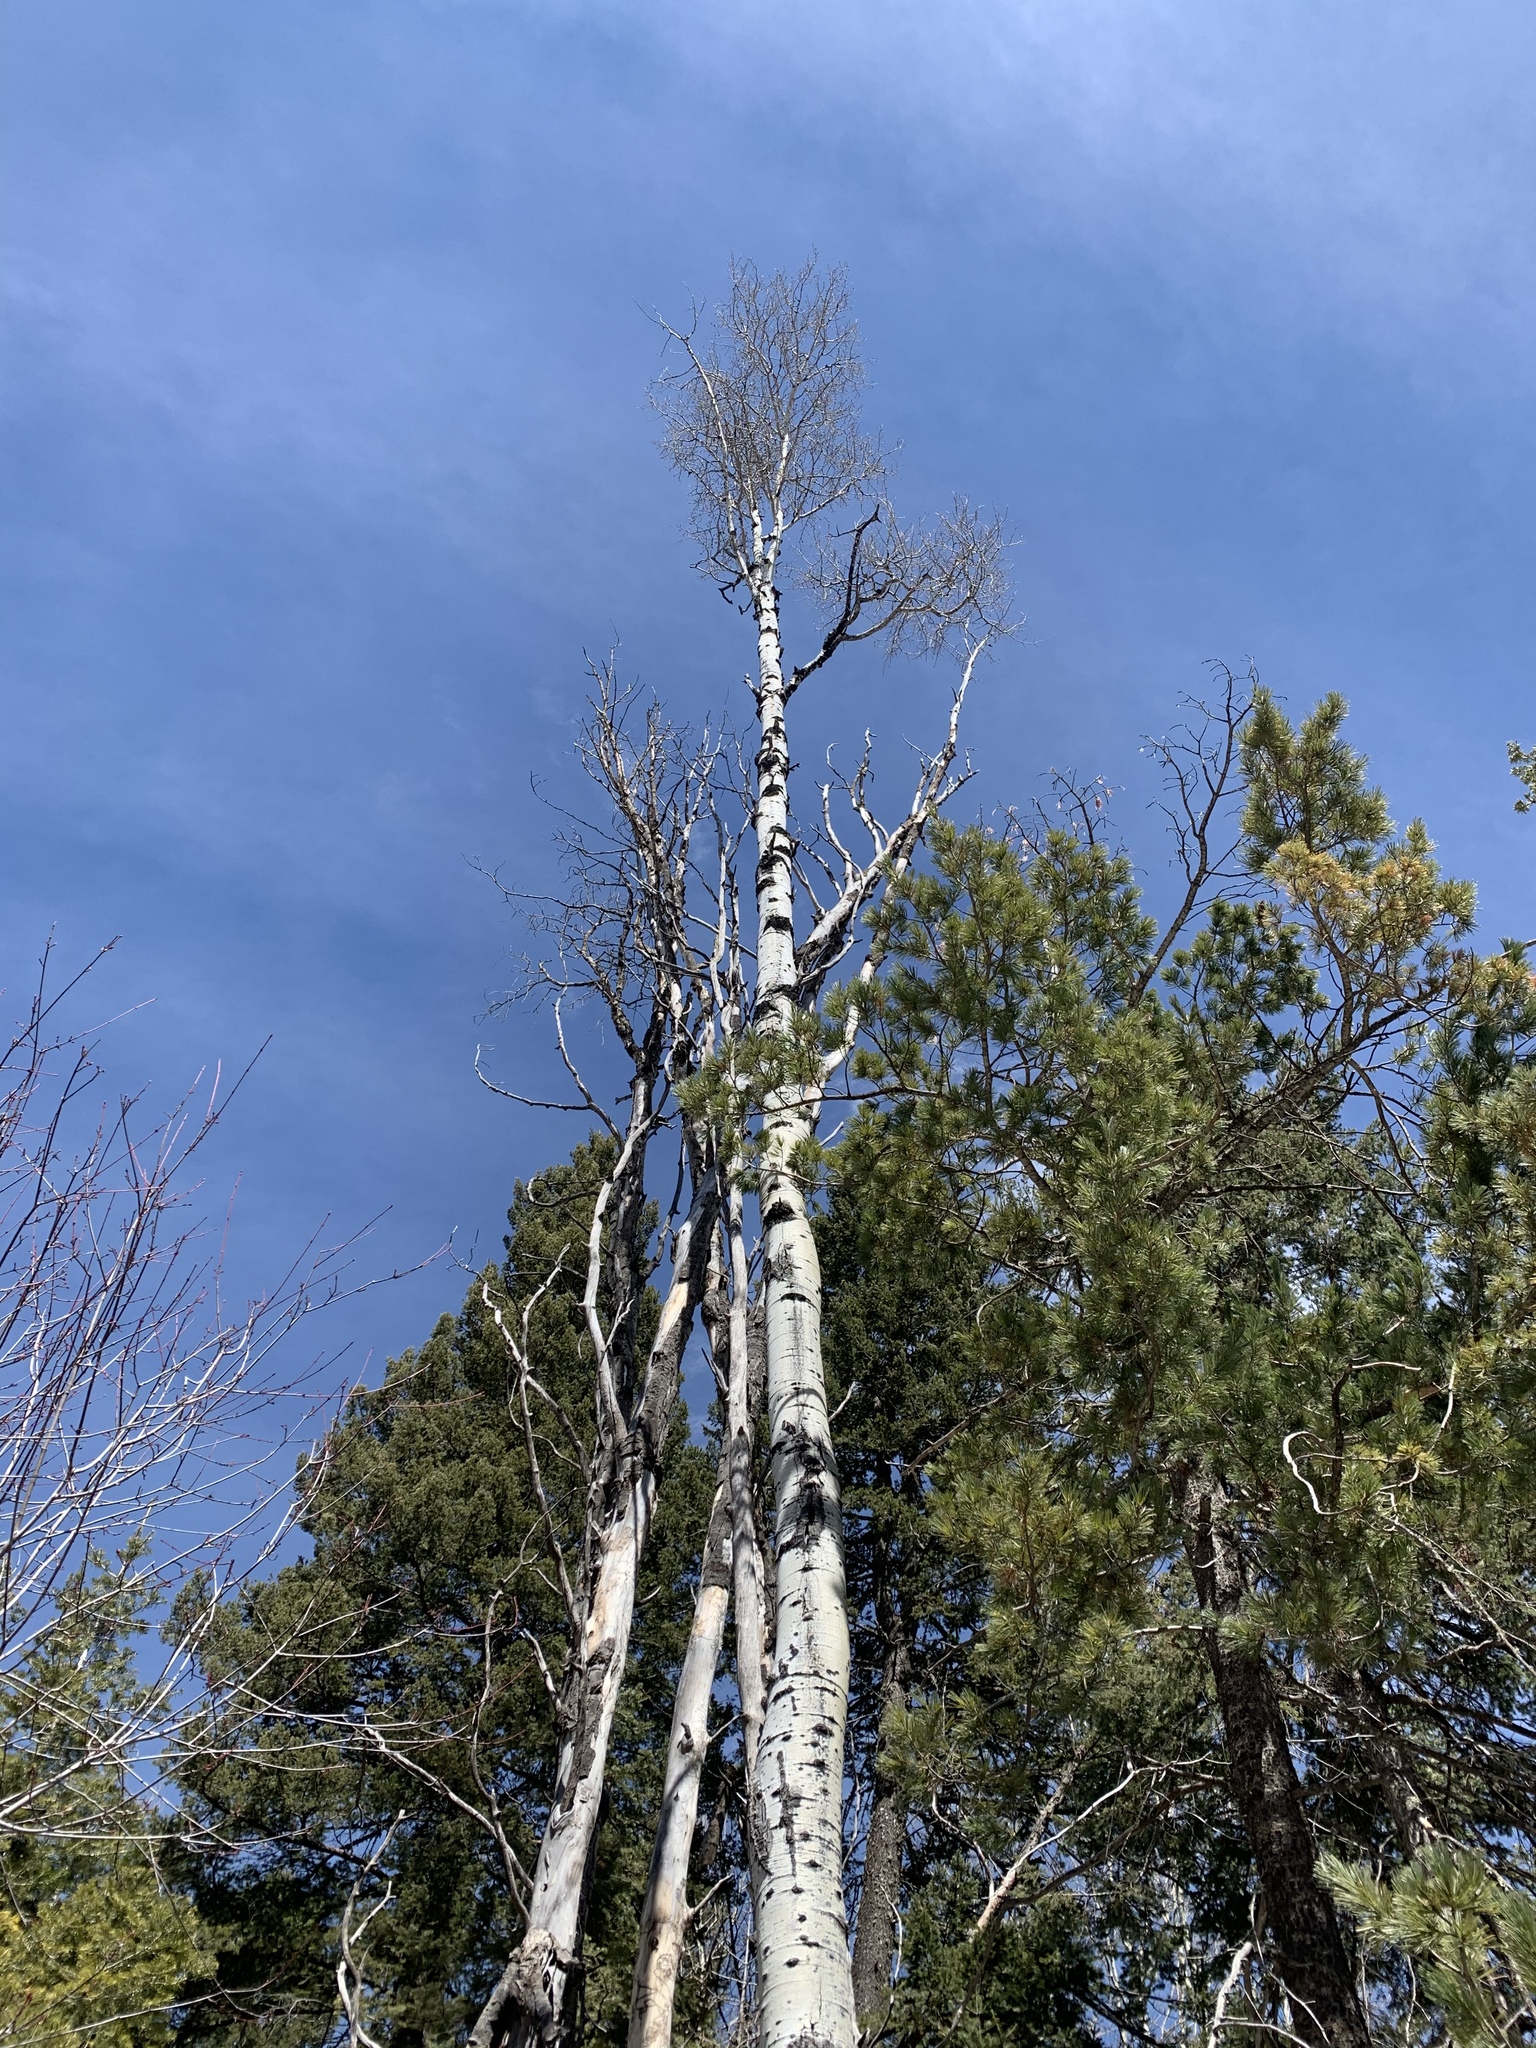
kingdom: Plantae
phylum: Tracheophyta
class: Magnoliopsida
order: Malpighiales
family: Salicaceae
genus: Populus
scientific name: Populus tremuloides
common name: Quaking aspen
